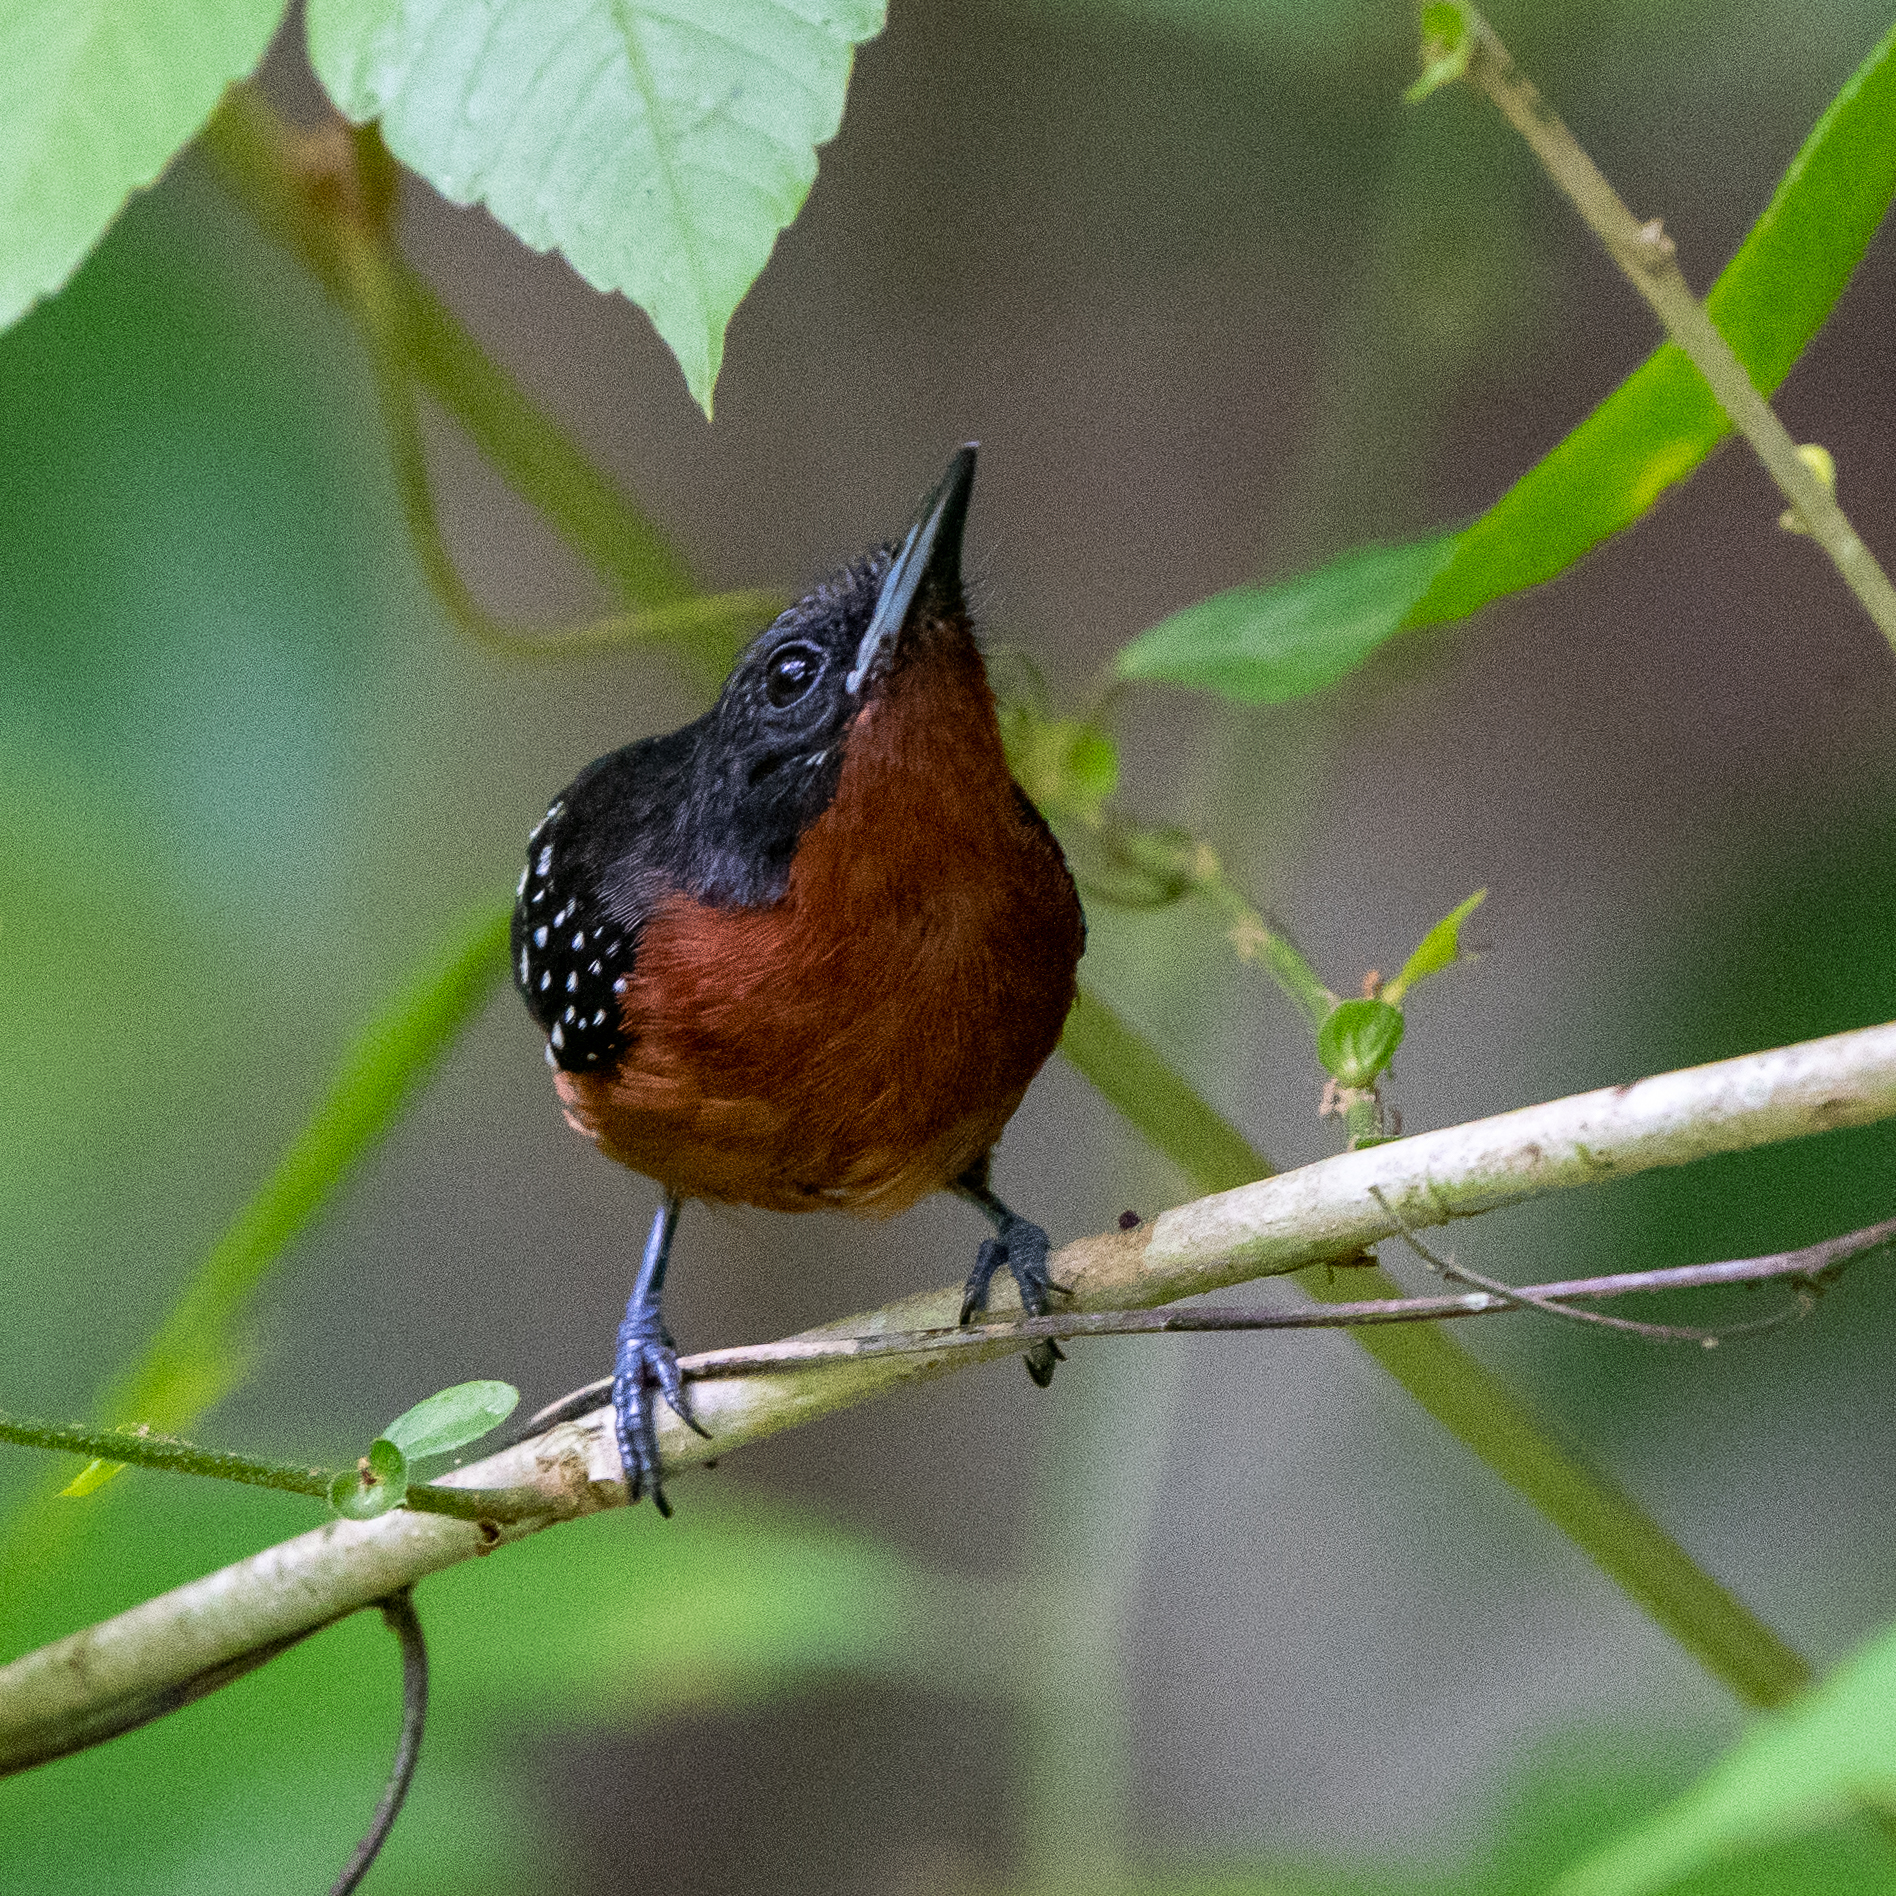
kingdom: Animalia
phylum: Chordata
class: Aves
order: Passeriformes
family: Thamnophilidae
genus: Microrhopias
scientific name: Microrhopias quixensis
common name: Dot-winged antwren
